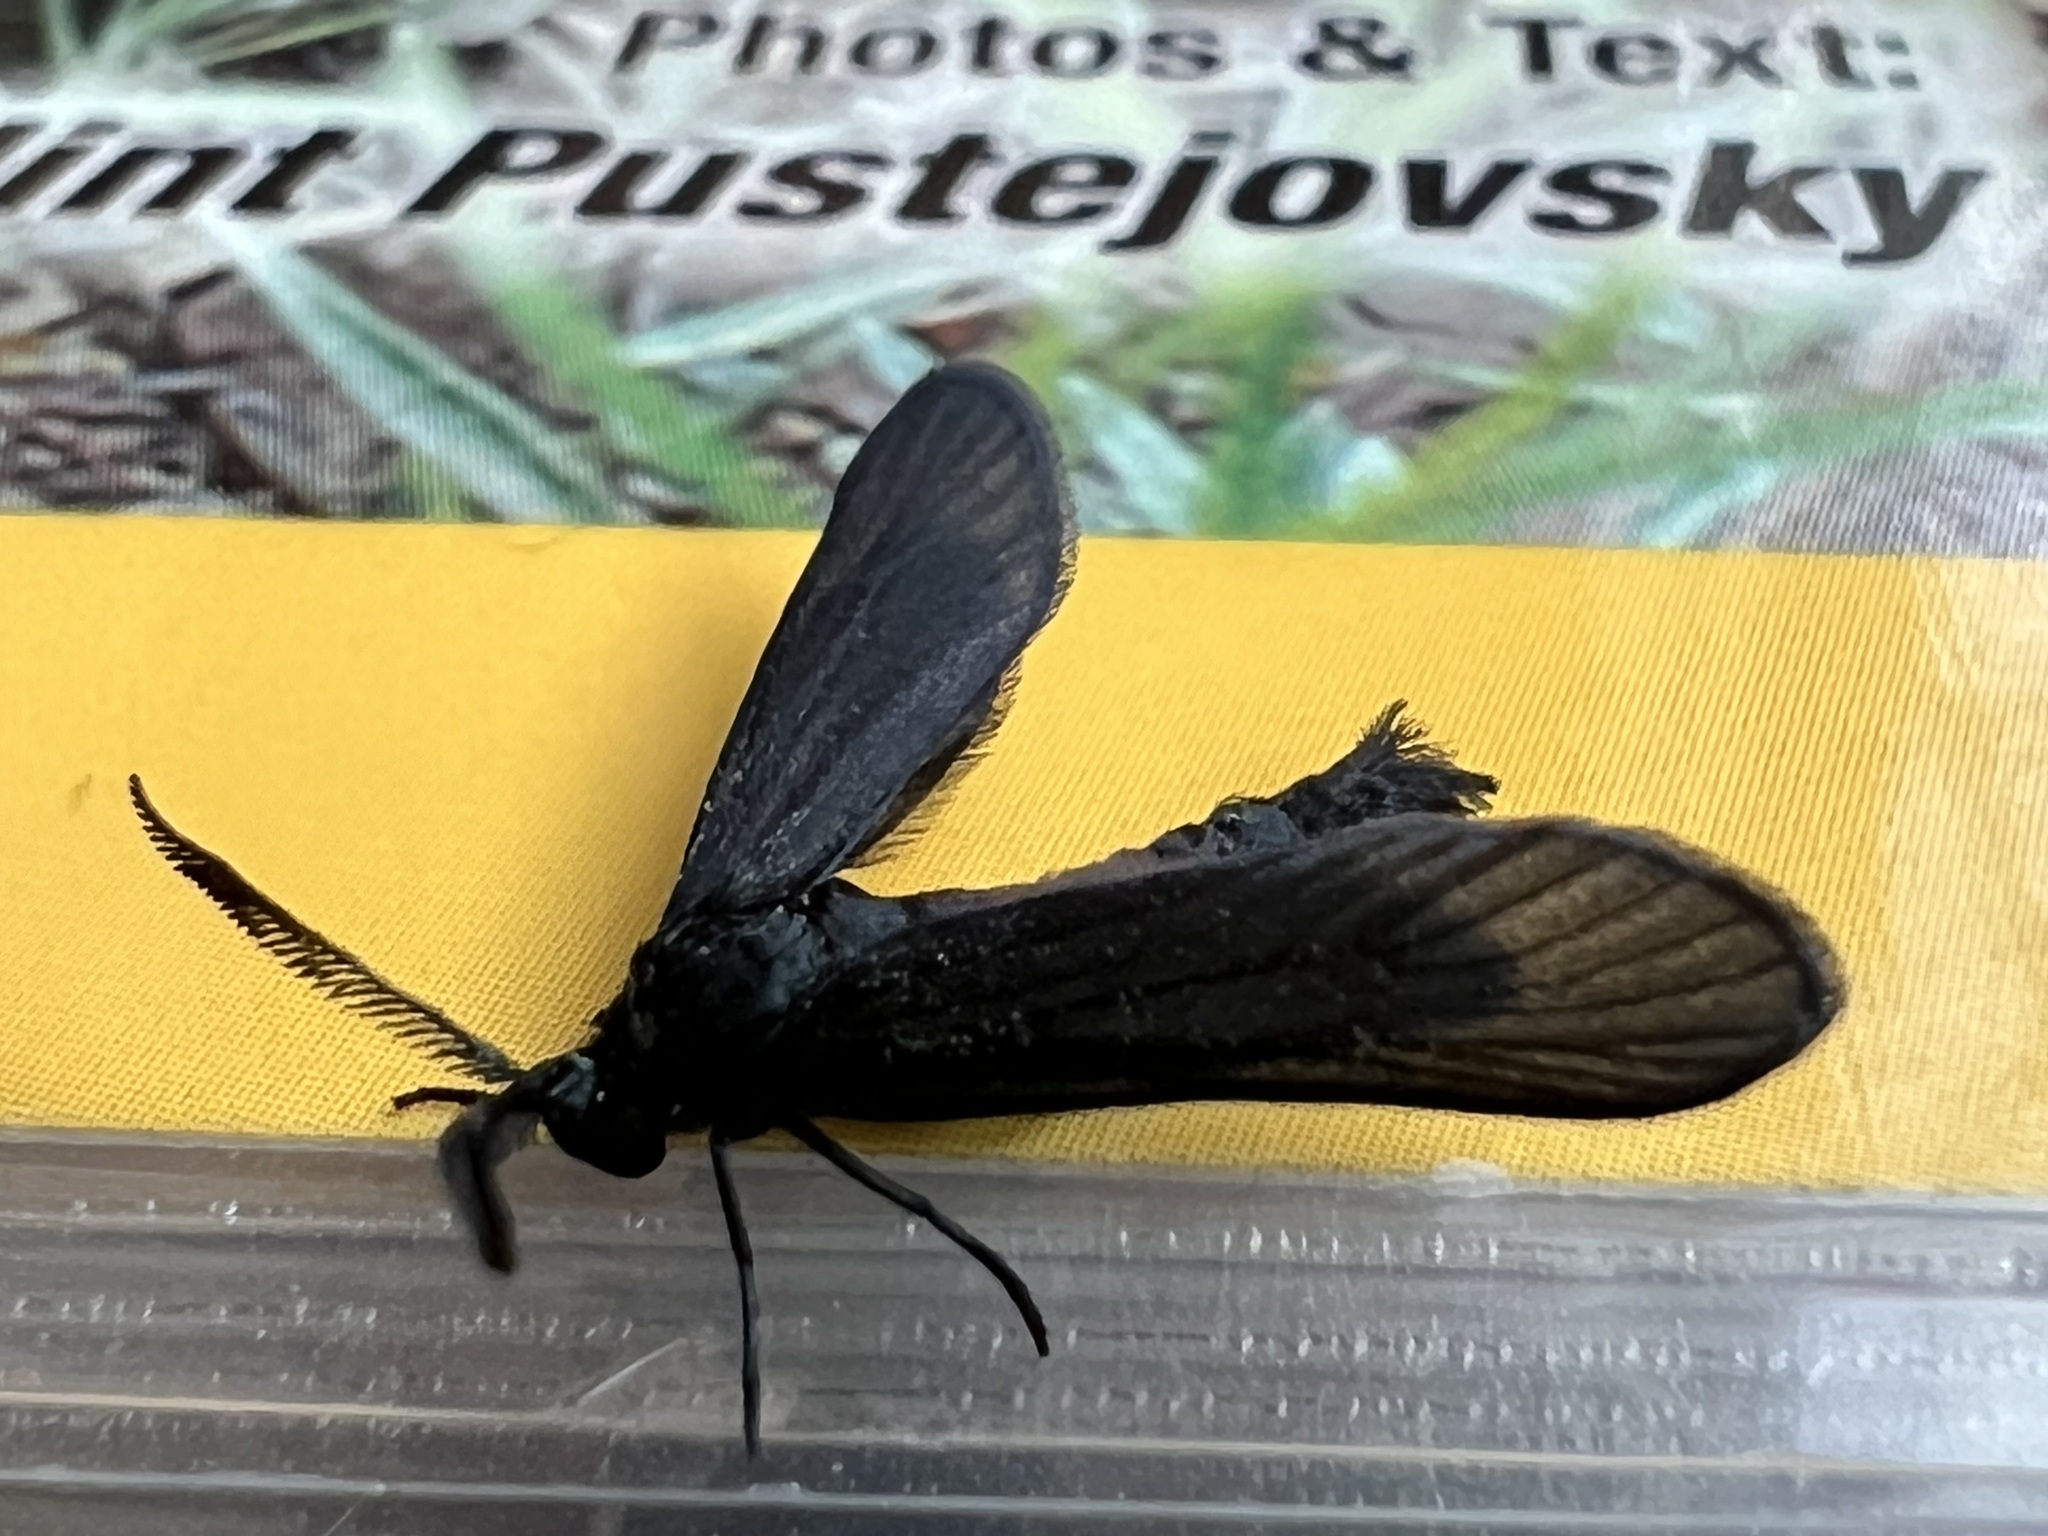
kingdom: Animalia
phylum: Arthropoda
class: Insecta
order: Lepidoptera
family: Zygaenidae
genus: Harrisina
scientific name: Harrisina coracina
